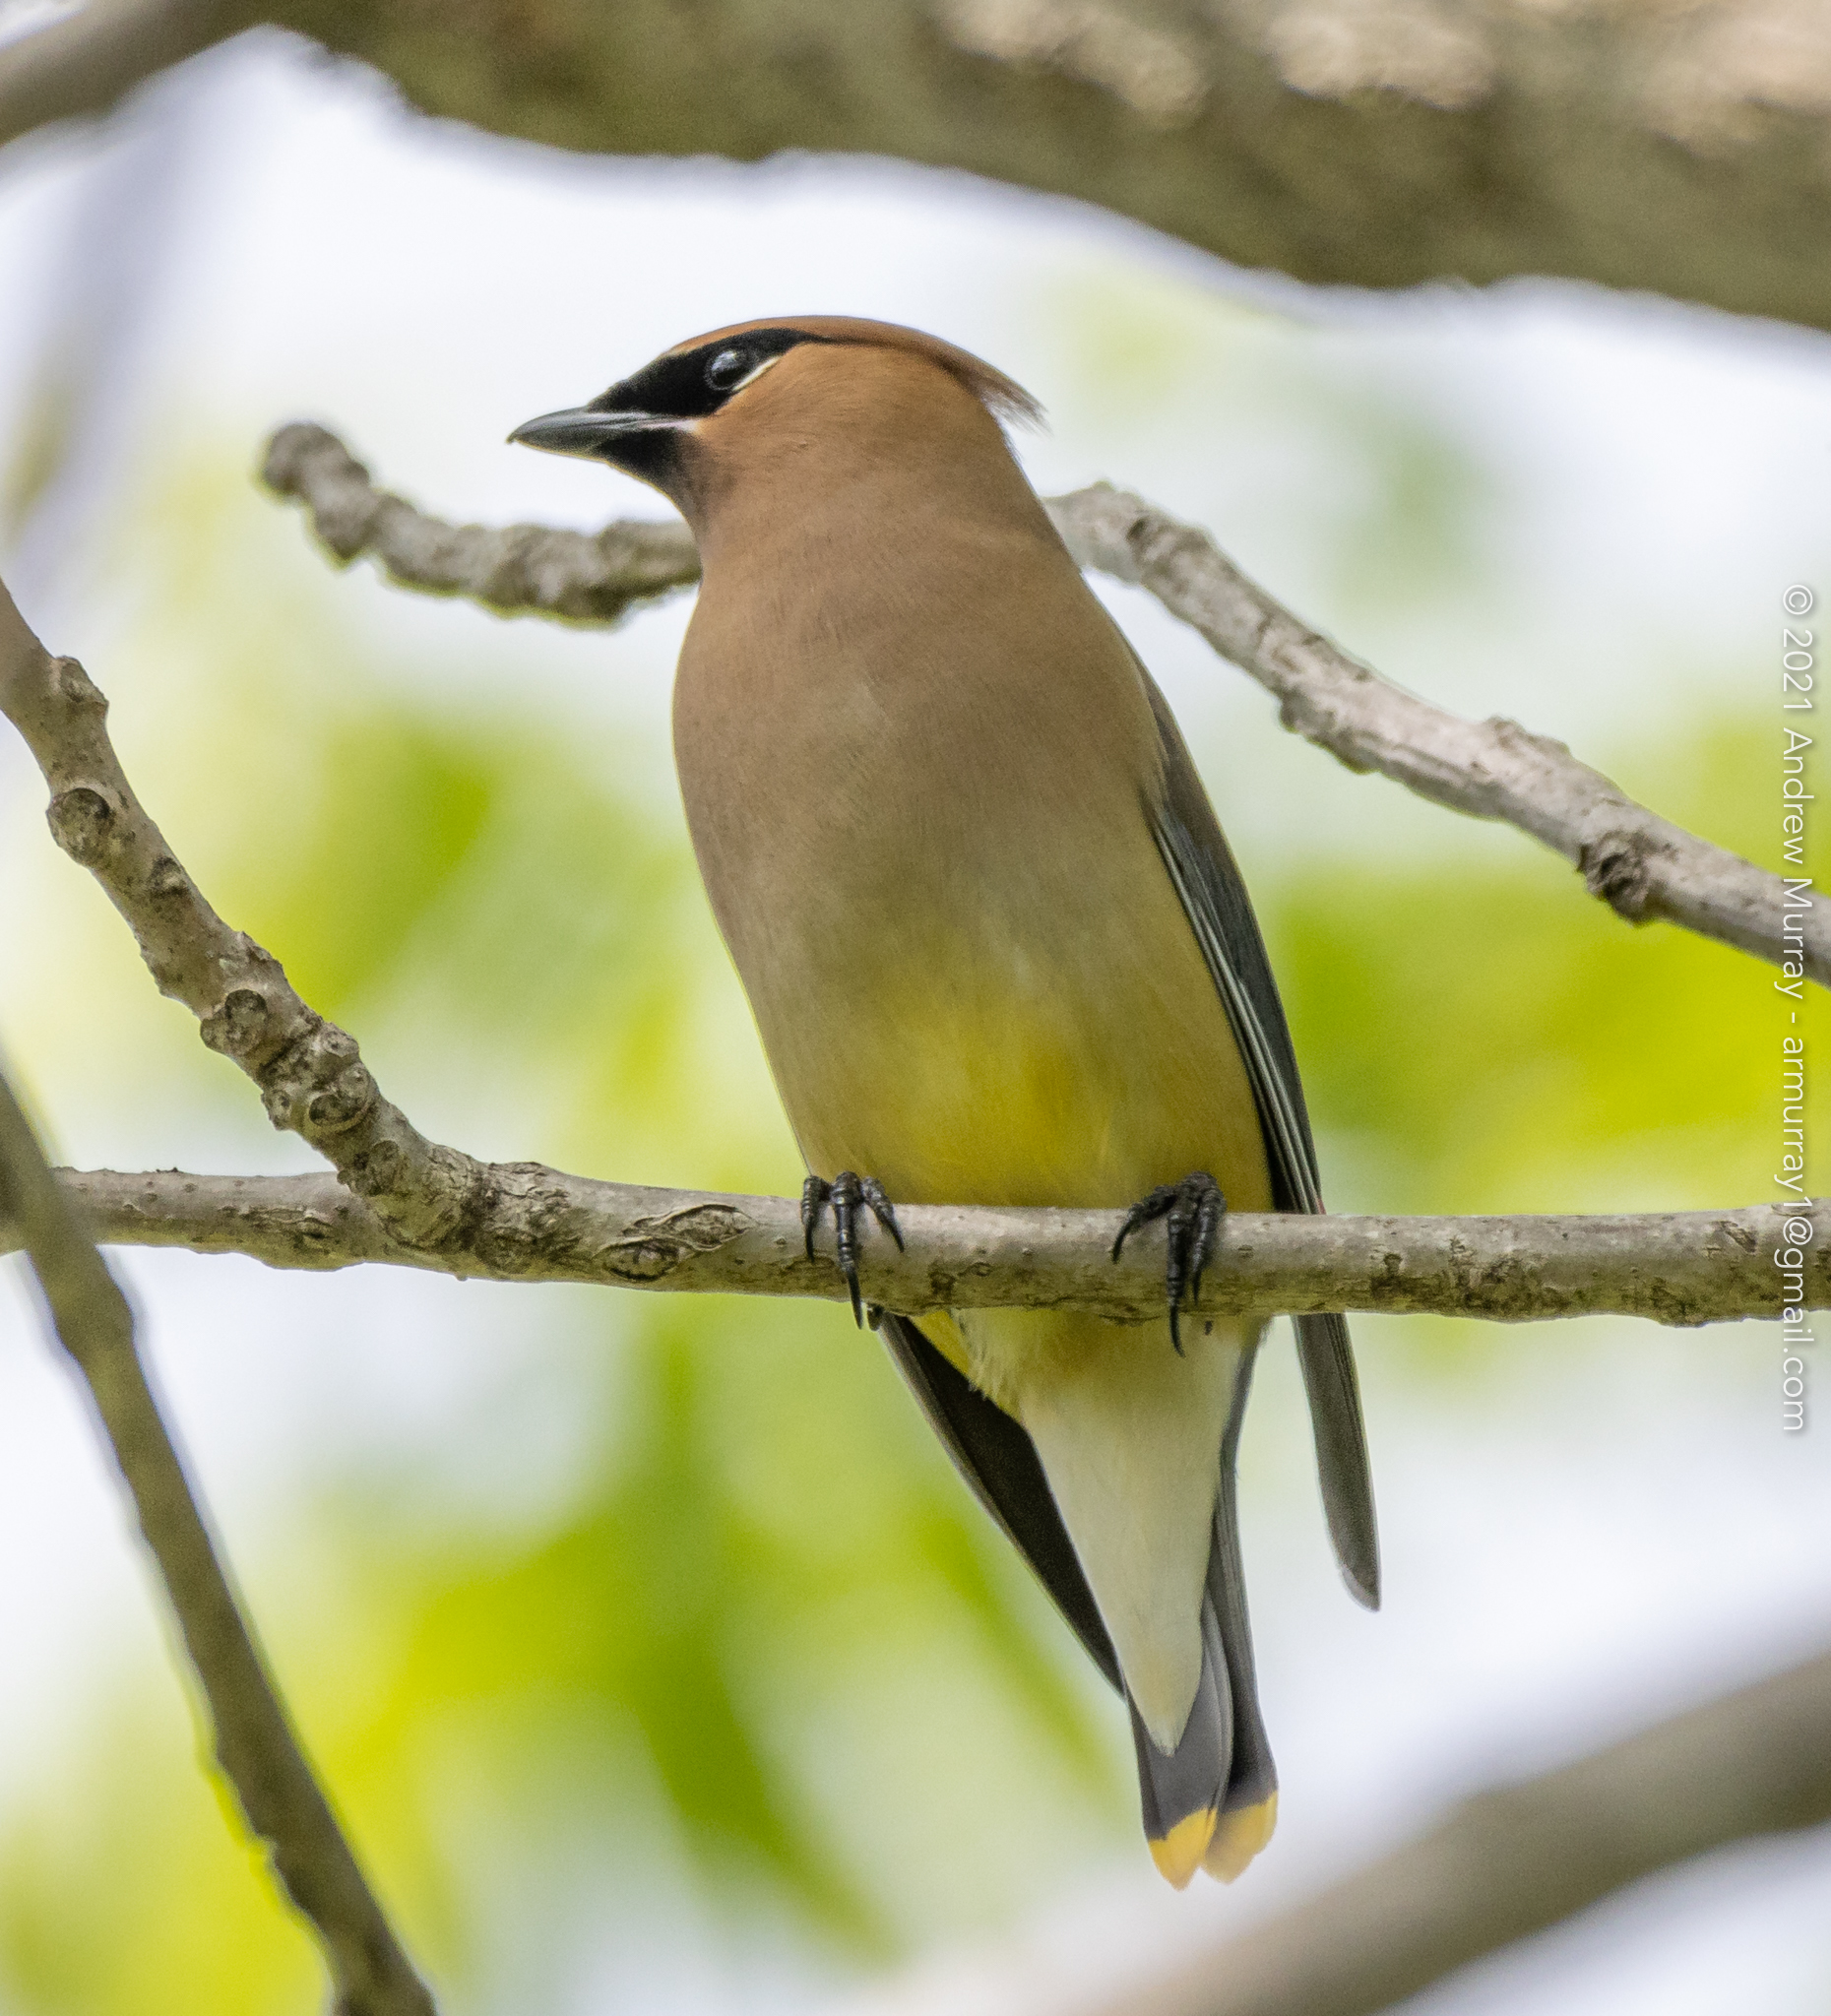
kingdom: Animalia
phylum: Chordata
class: Aves
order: Passeriformes
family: Bombycillidae
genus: Bombycilla
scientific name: Bombycilla cedrorum
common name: Cedar waxwing
